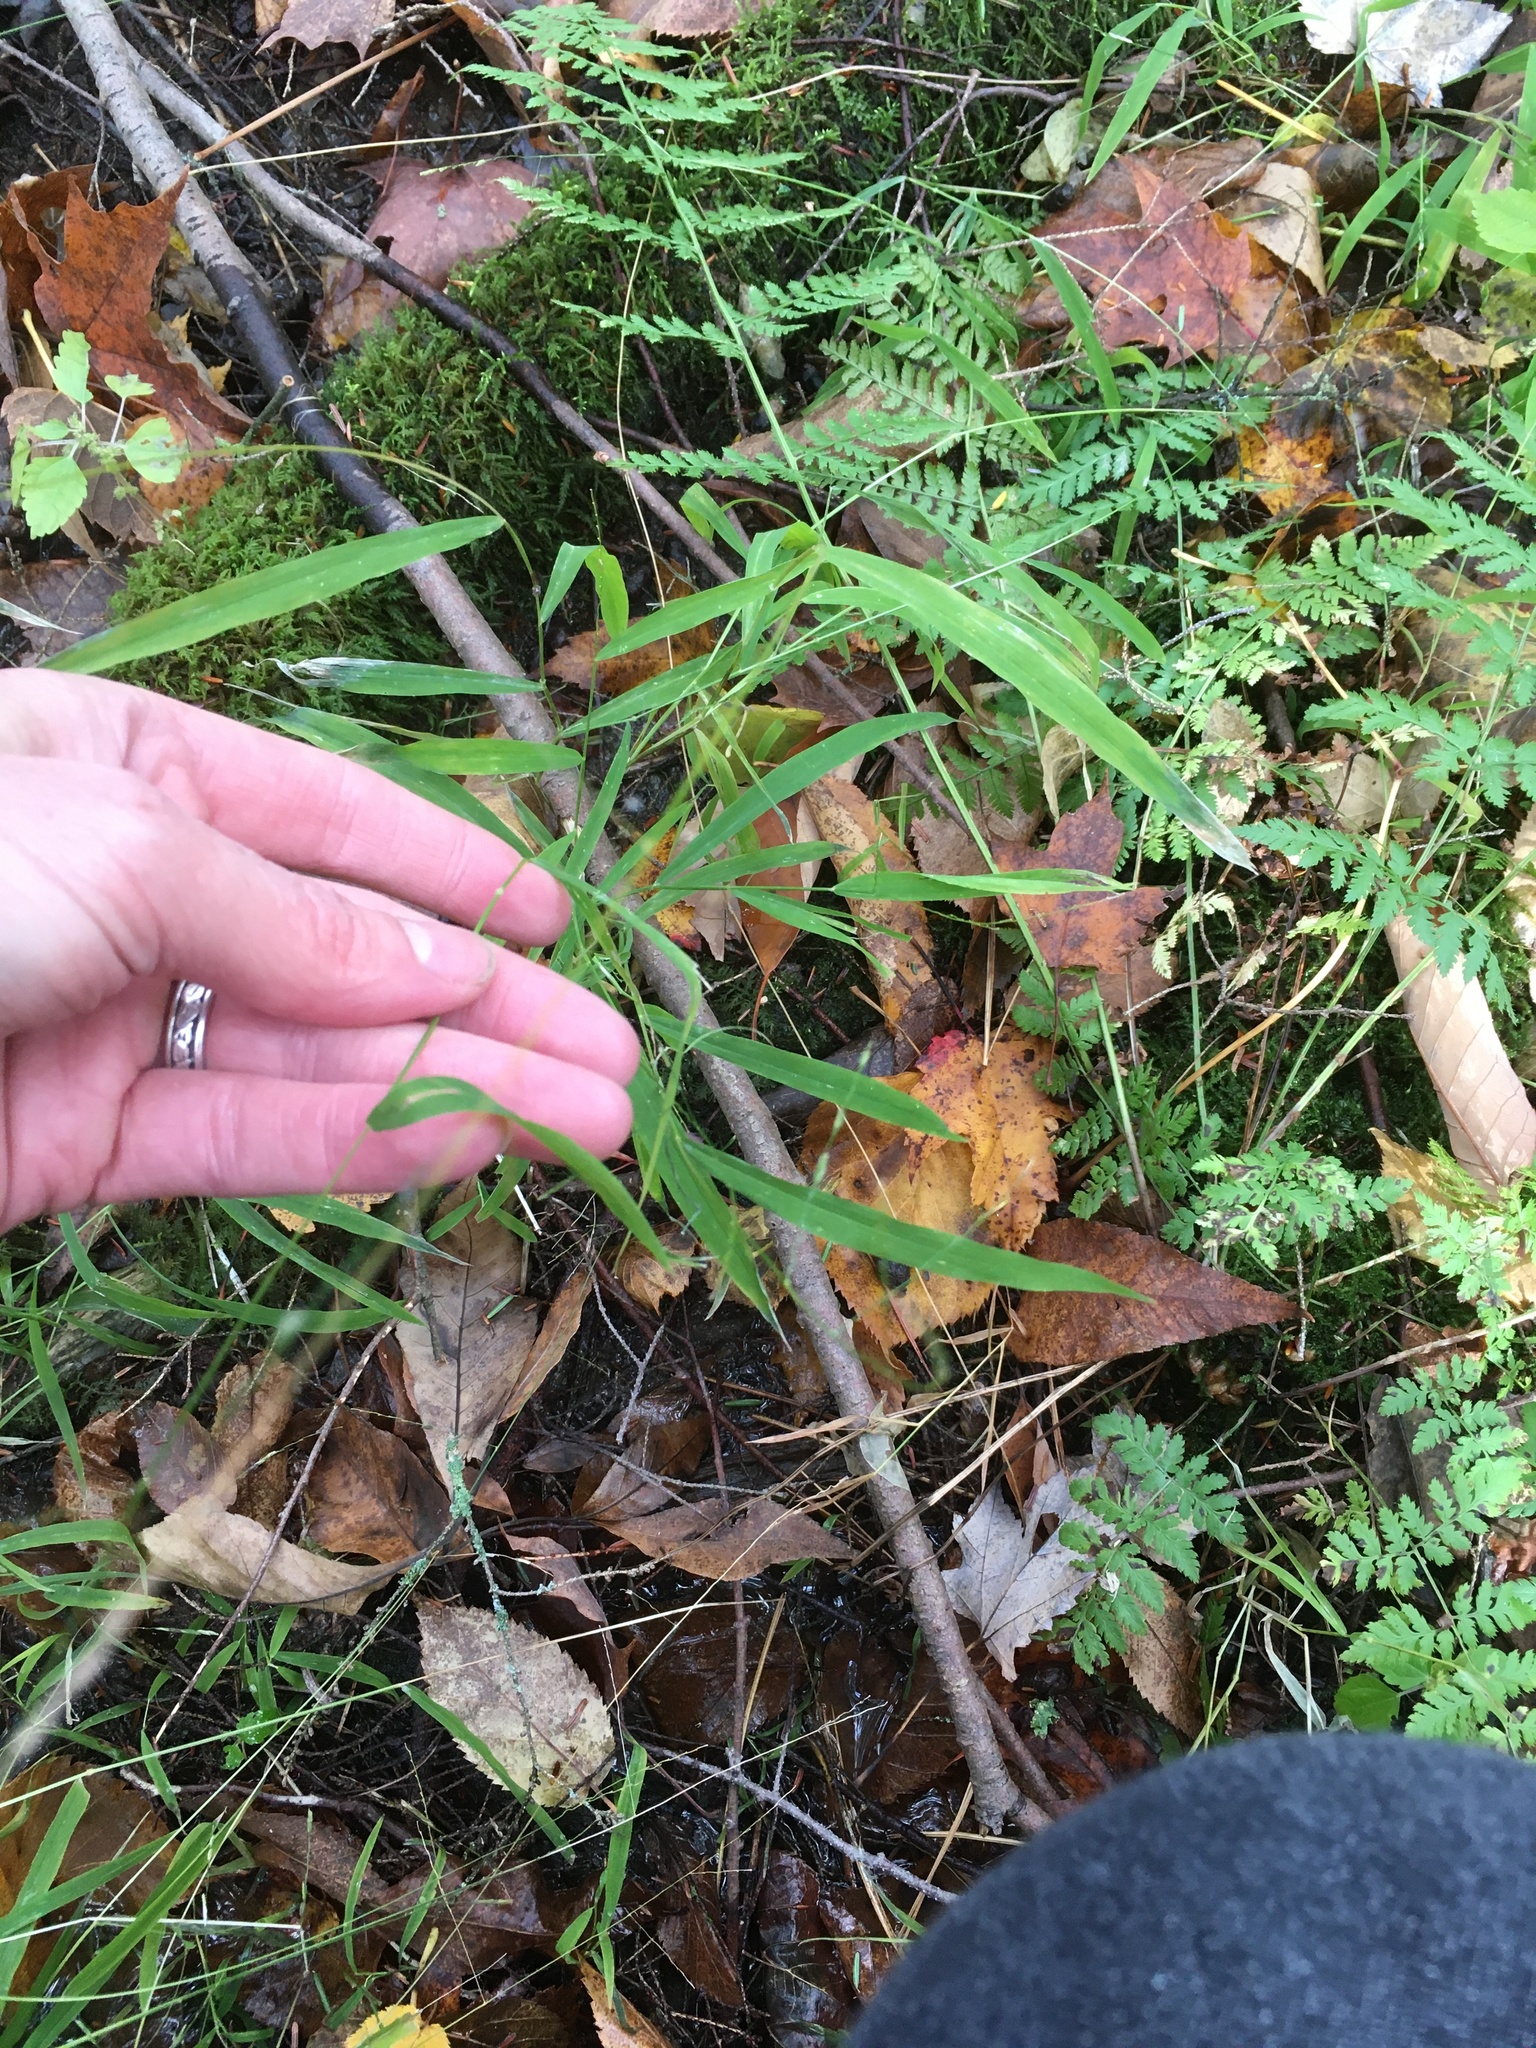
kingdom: Plantae
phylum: Tracheophyta
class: Liliopsida
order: Poales
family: Poaceae
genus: Leersia
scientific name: Leersia virginica
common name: White cutgrass
